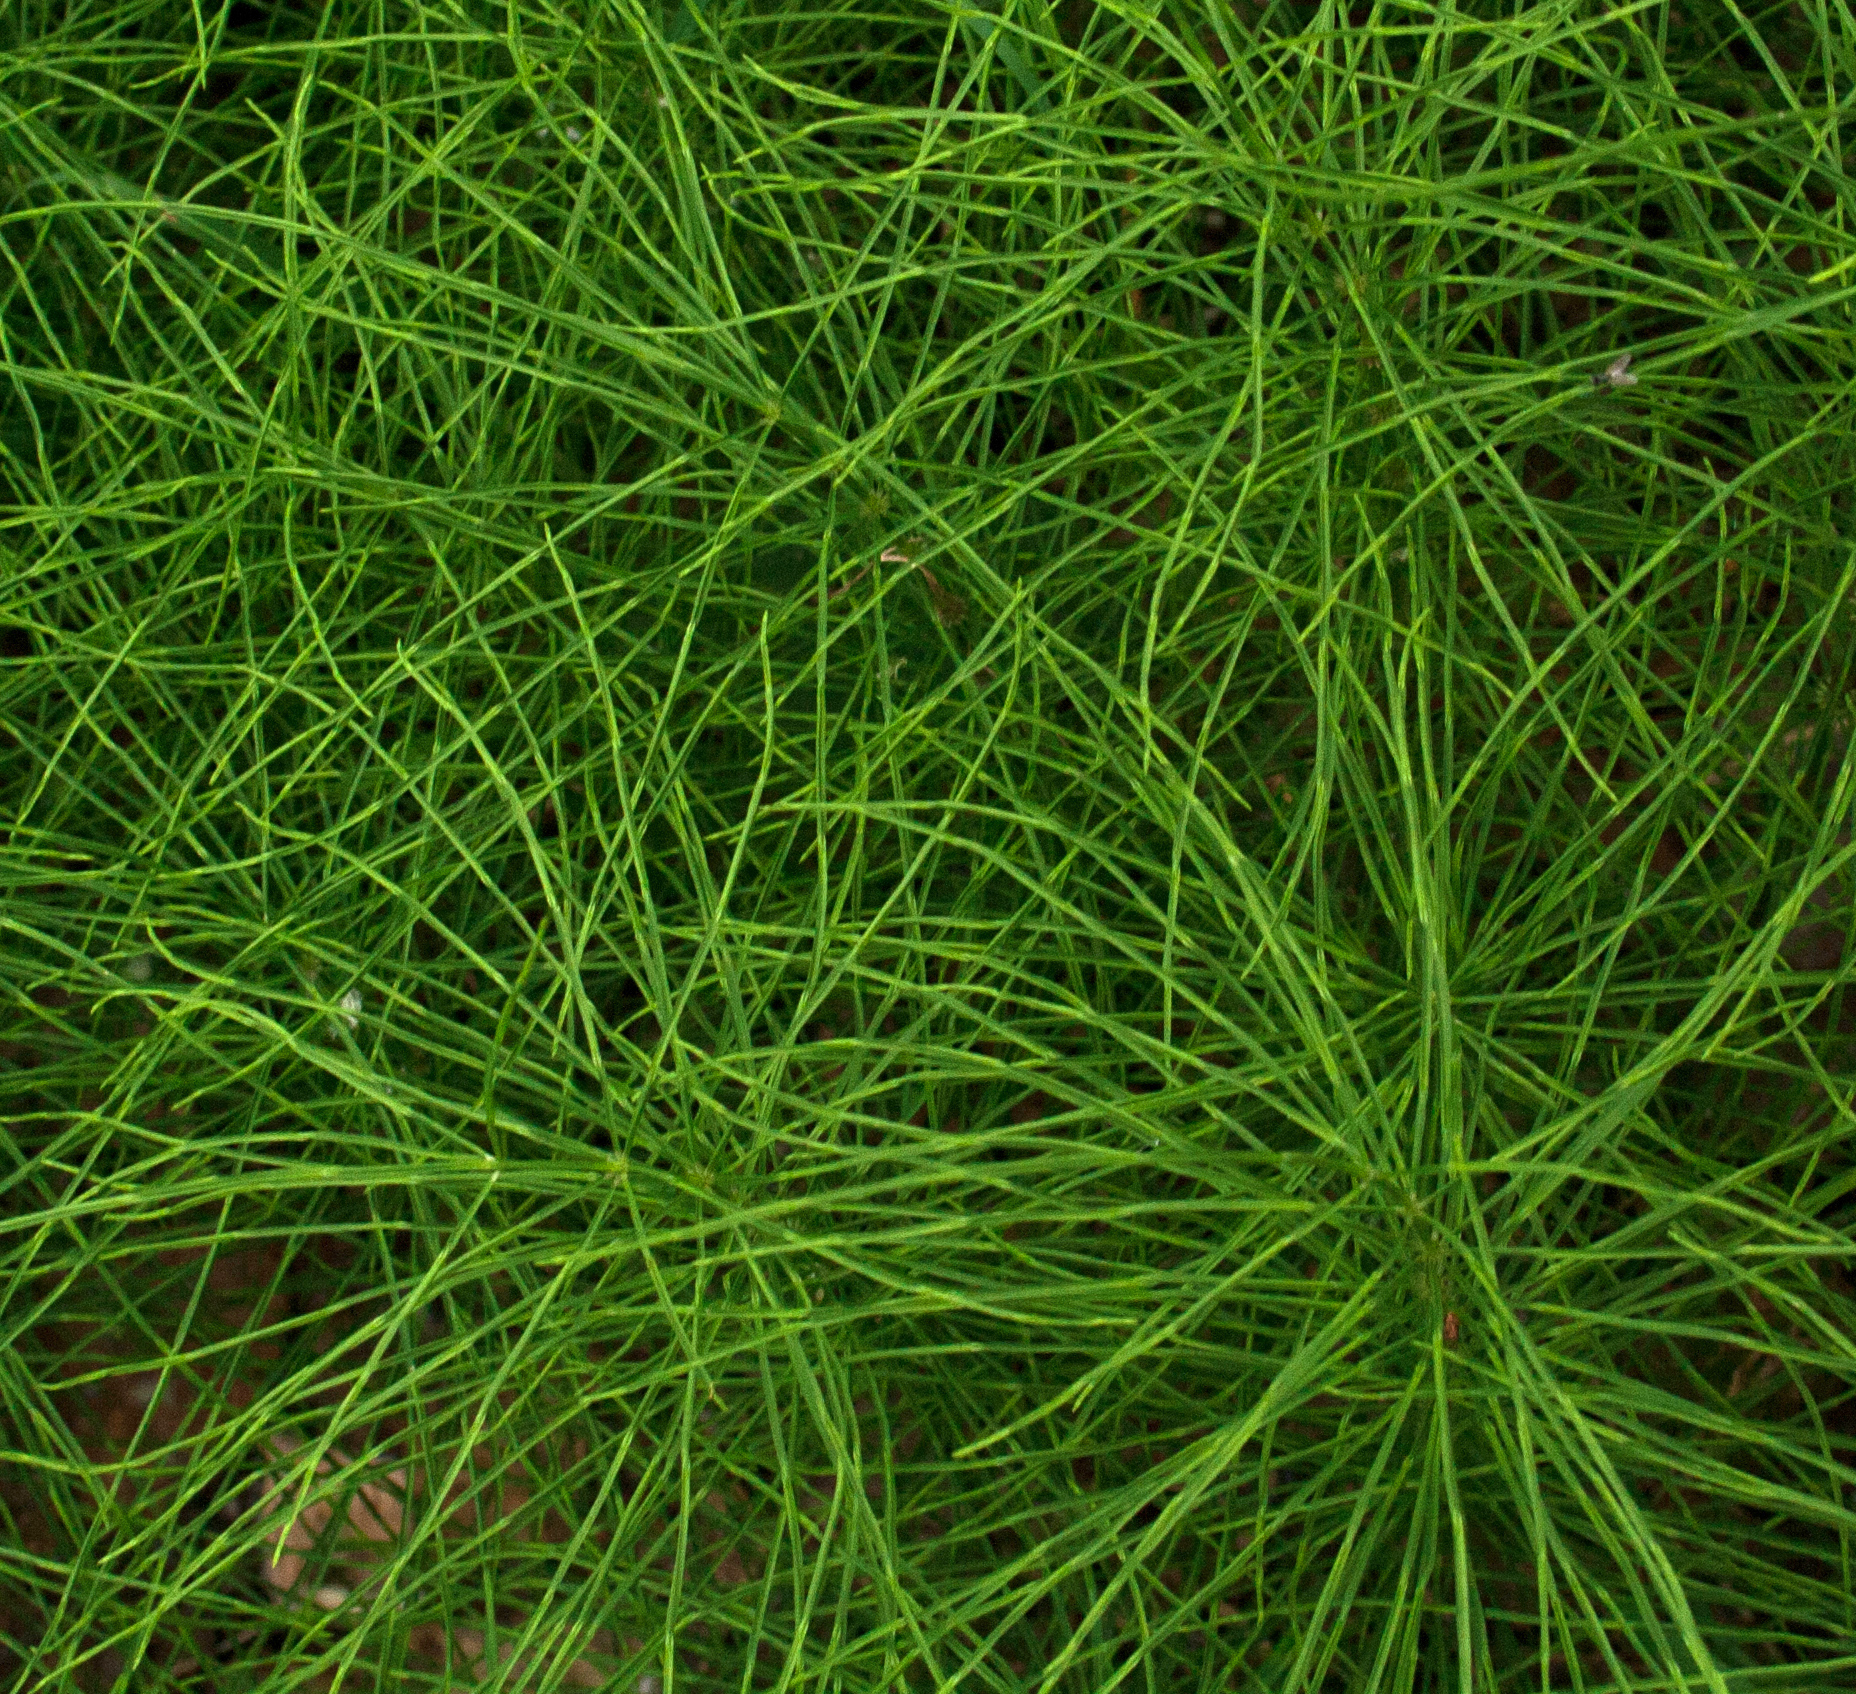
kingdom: Plantae
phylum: Tracheophyta
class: Polypodiopsida
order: Equisetales
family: Equisetaceae
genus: Equisetum
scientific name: Equisetum arvense
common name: Field horsetail
